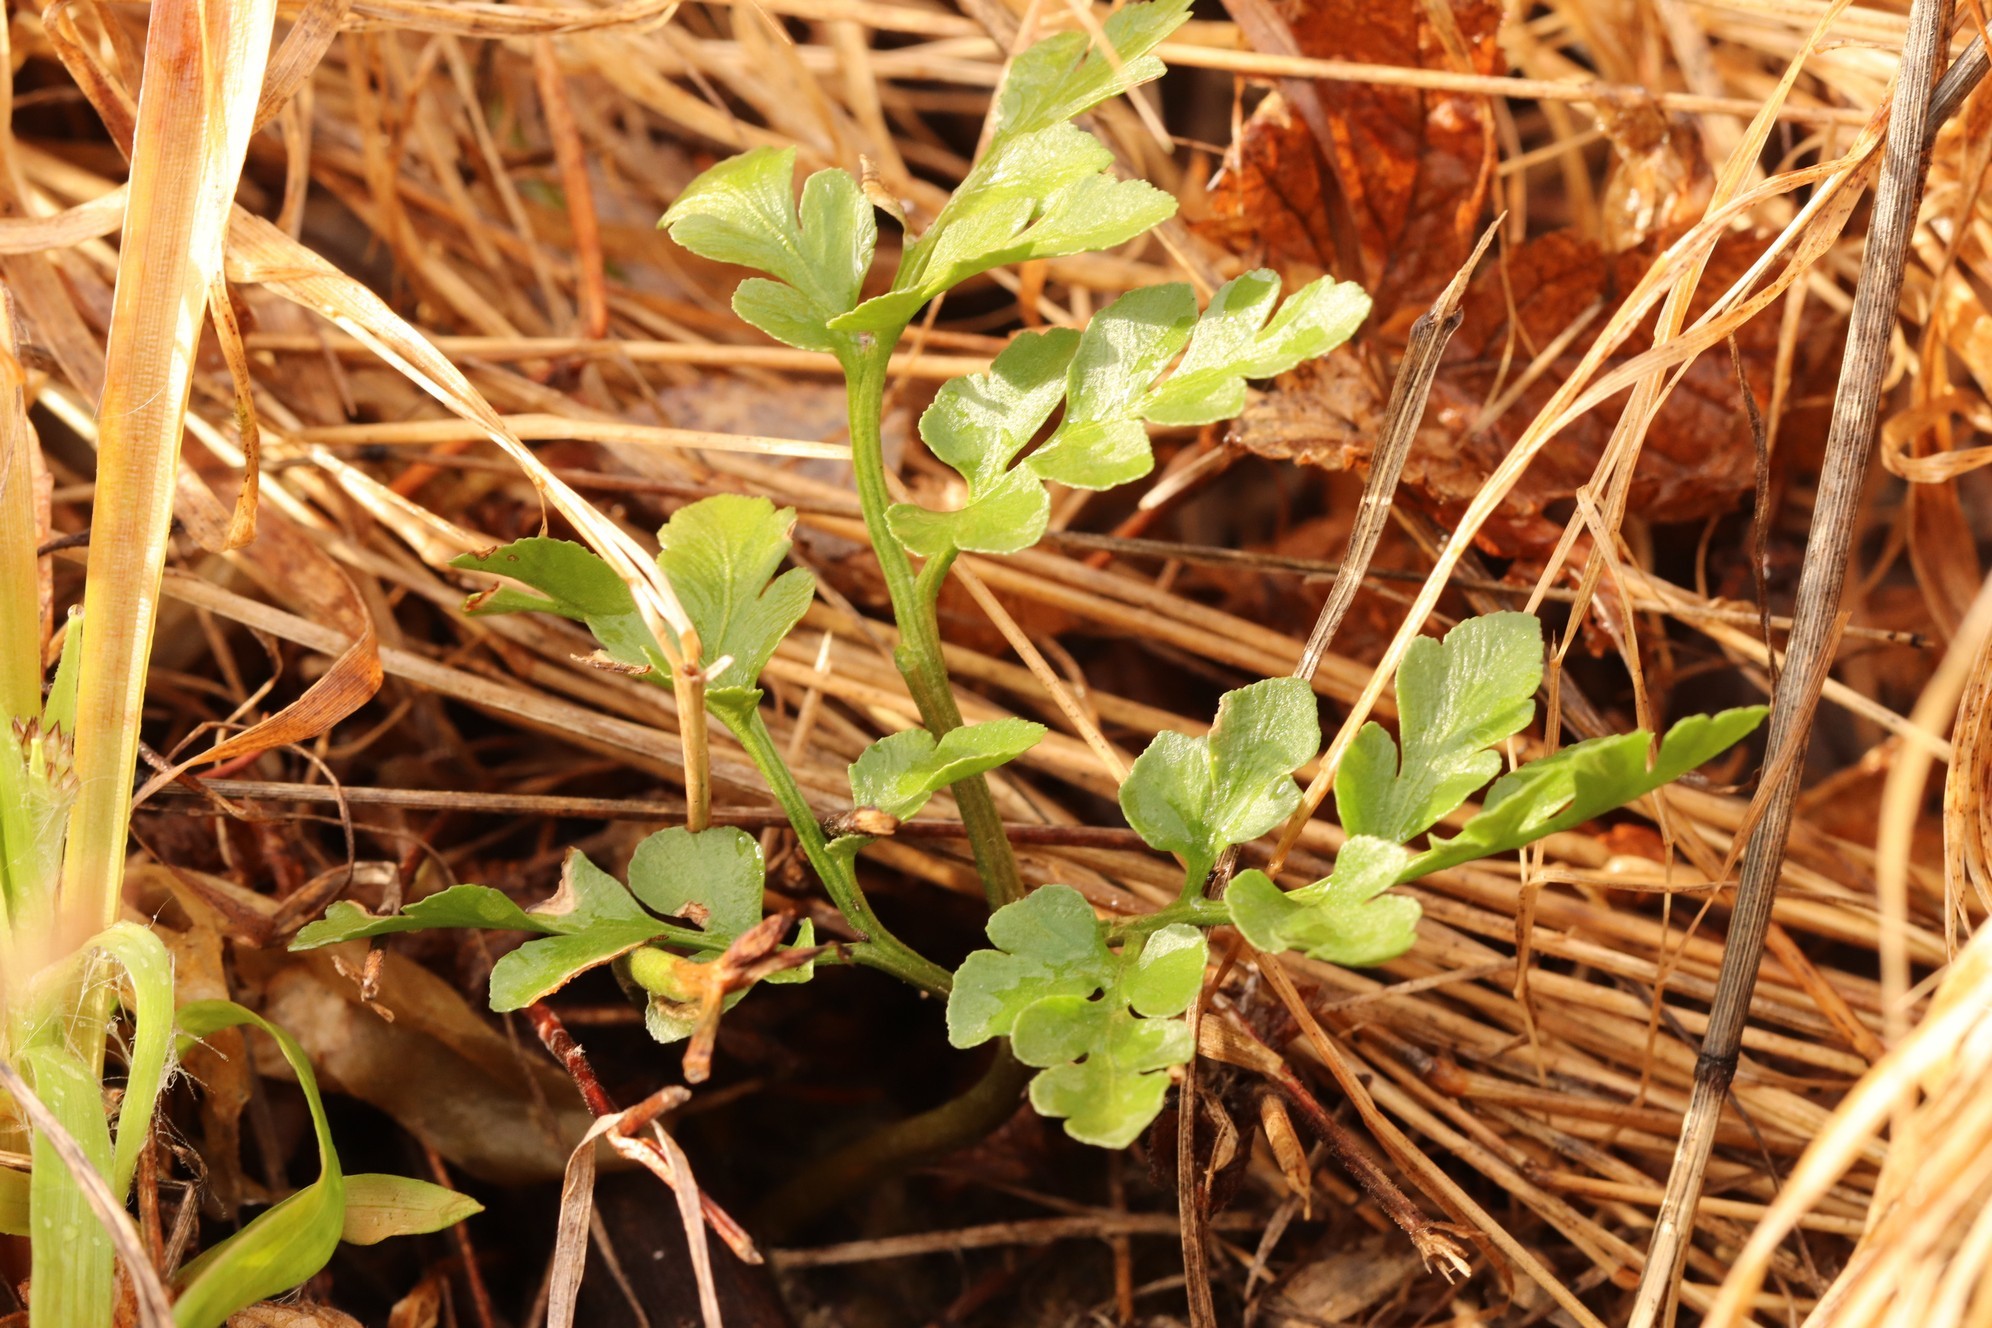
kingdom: Plantae
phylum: Tracheophyta
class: Polypodiopsida
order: Ophioglossales
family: Ophioglossaceae
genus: Sceptridium
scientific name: Sceptridium multifidum
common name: Leathery grape fern
